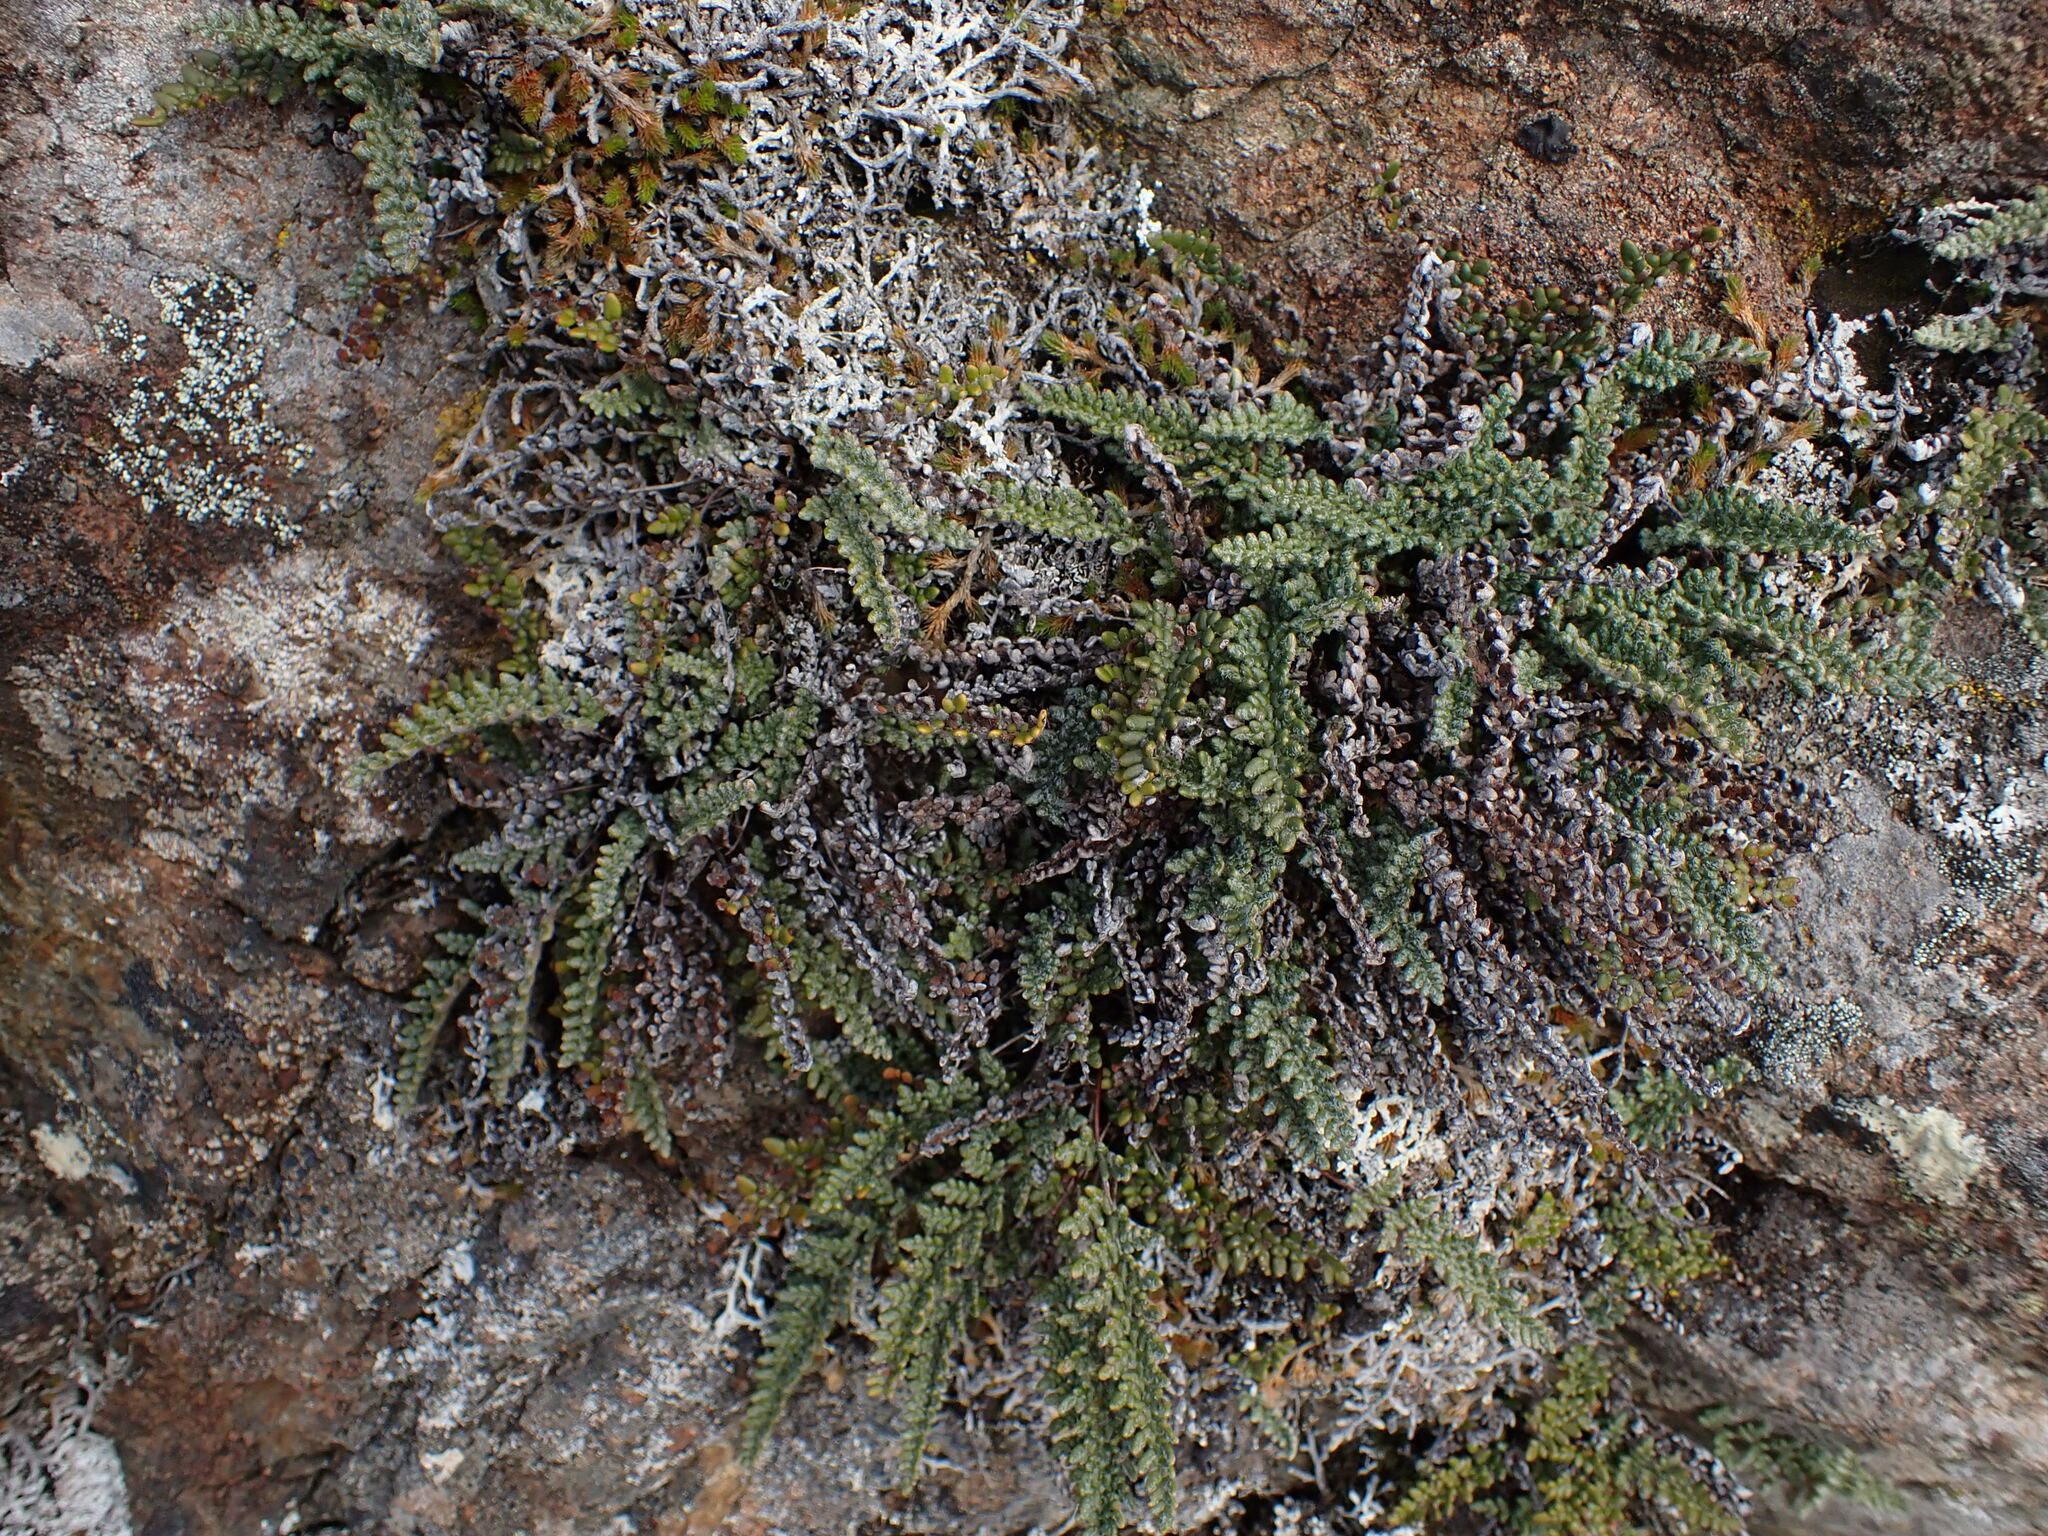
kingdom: Plantae
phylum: Tracheophyta
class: Polypodiopsida
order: Polypodiales
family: Pteridaceae
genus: Myriopteris
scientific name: Myriopteris gracillima
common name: Lace fern
